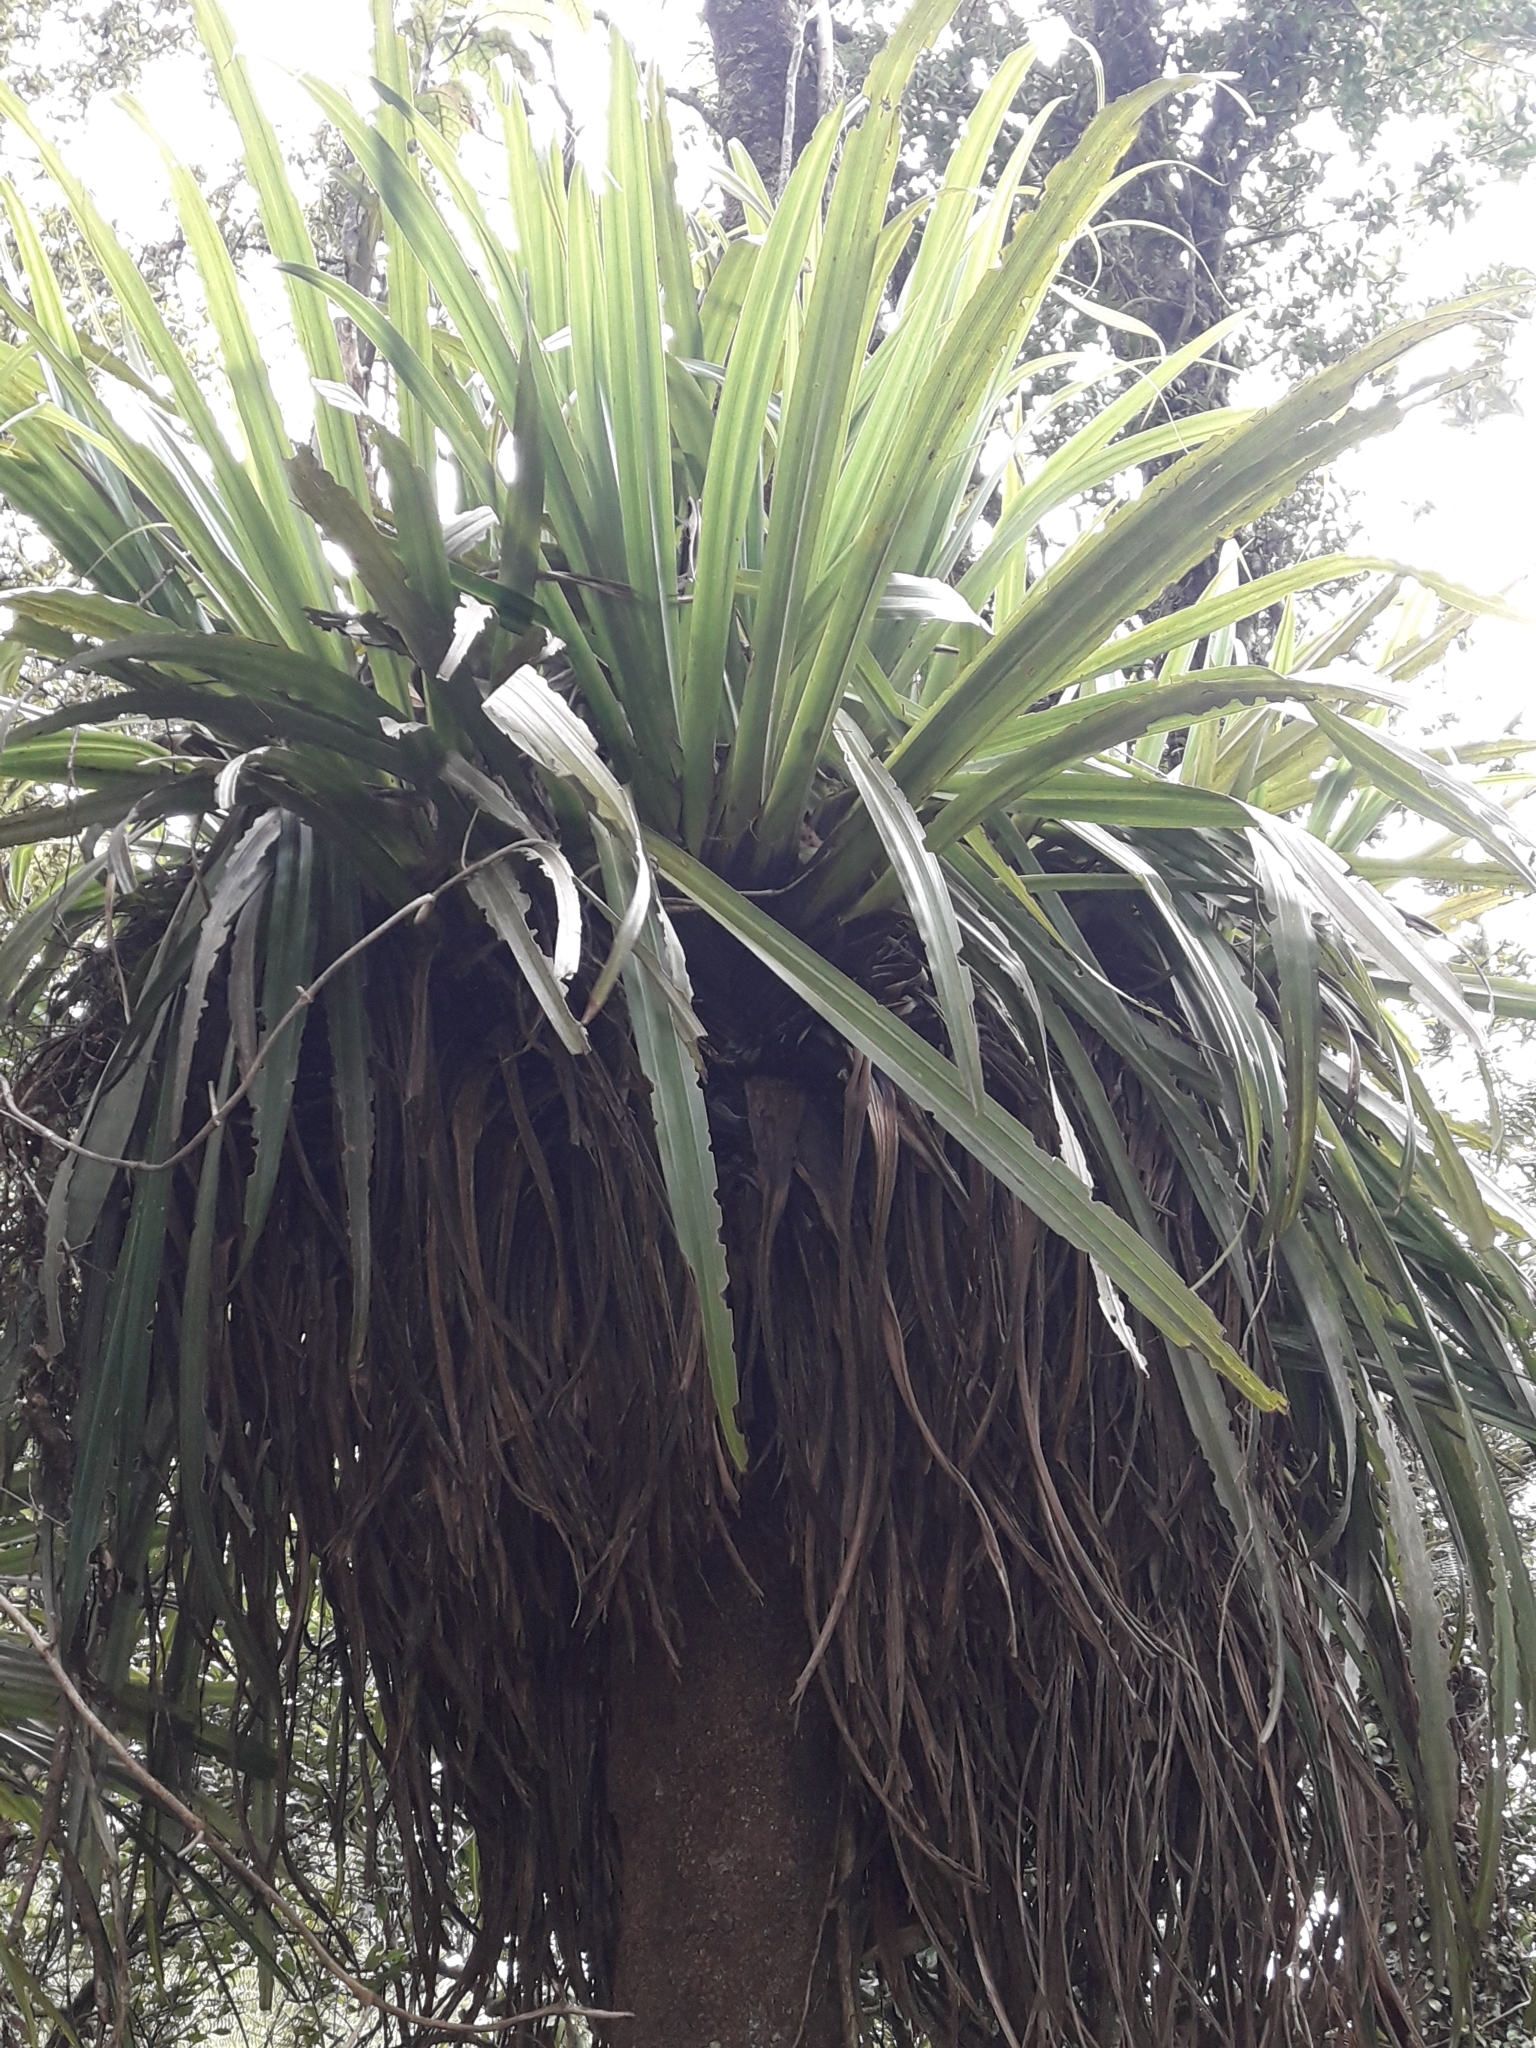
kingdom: Plantae
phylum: Tracheophyta
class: Liliopsida
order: Asparagales
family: Asteliaceae
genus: Astelia
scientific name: Astelia hastata
